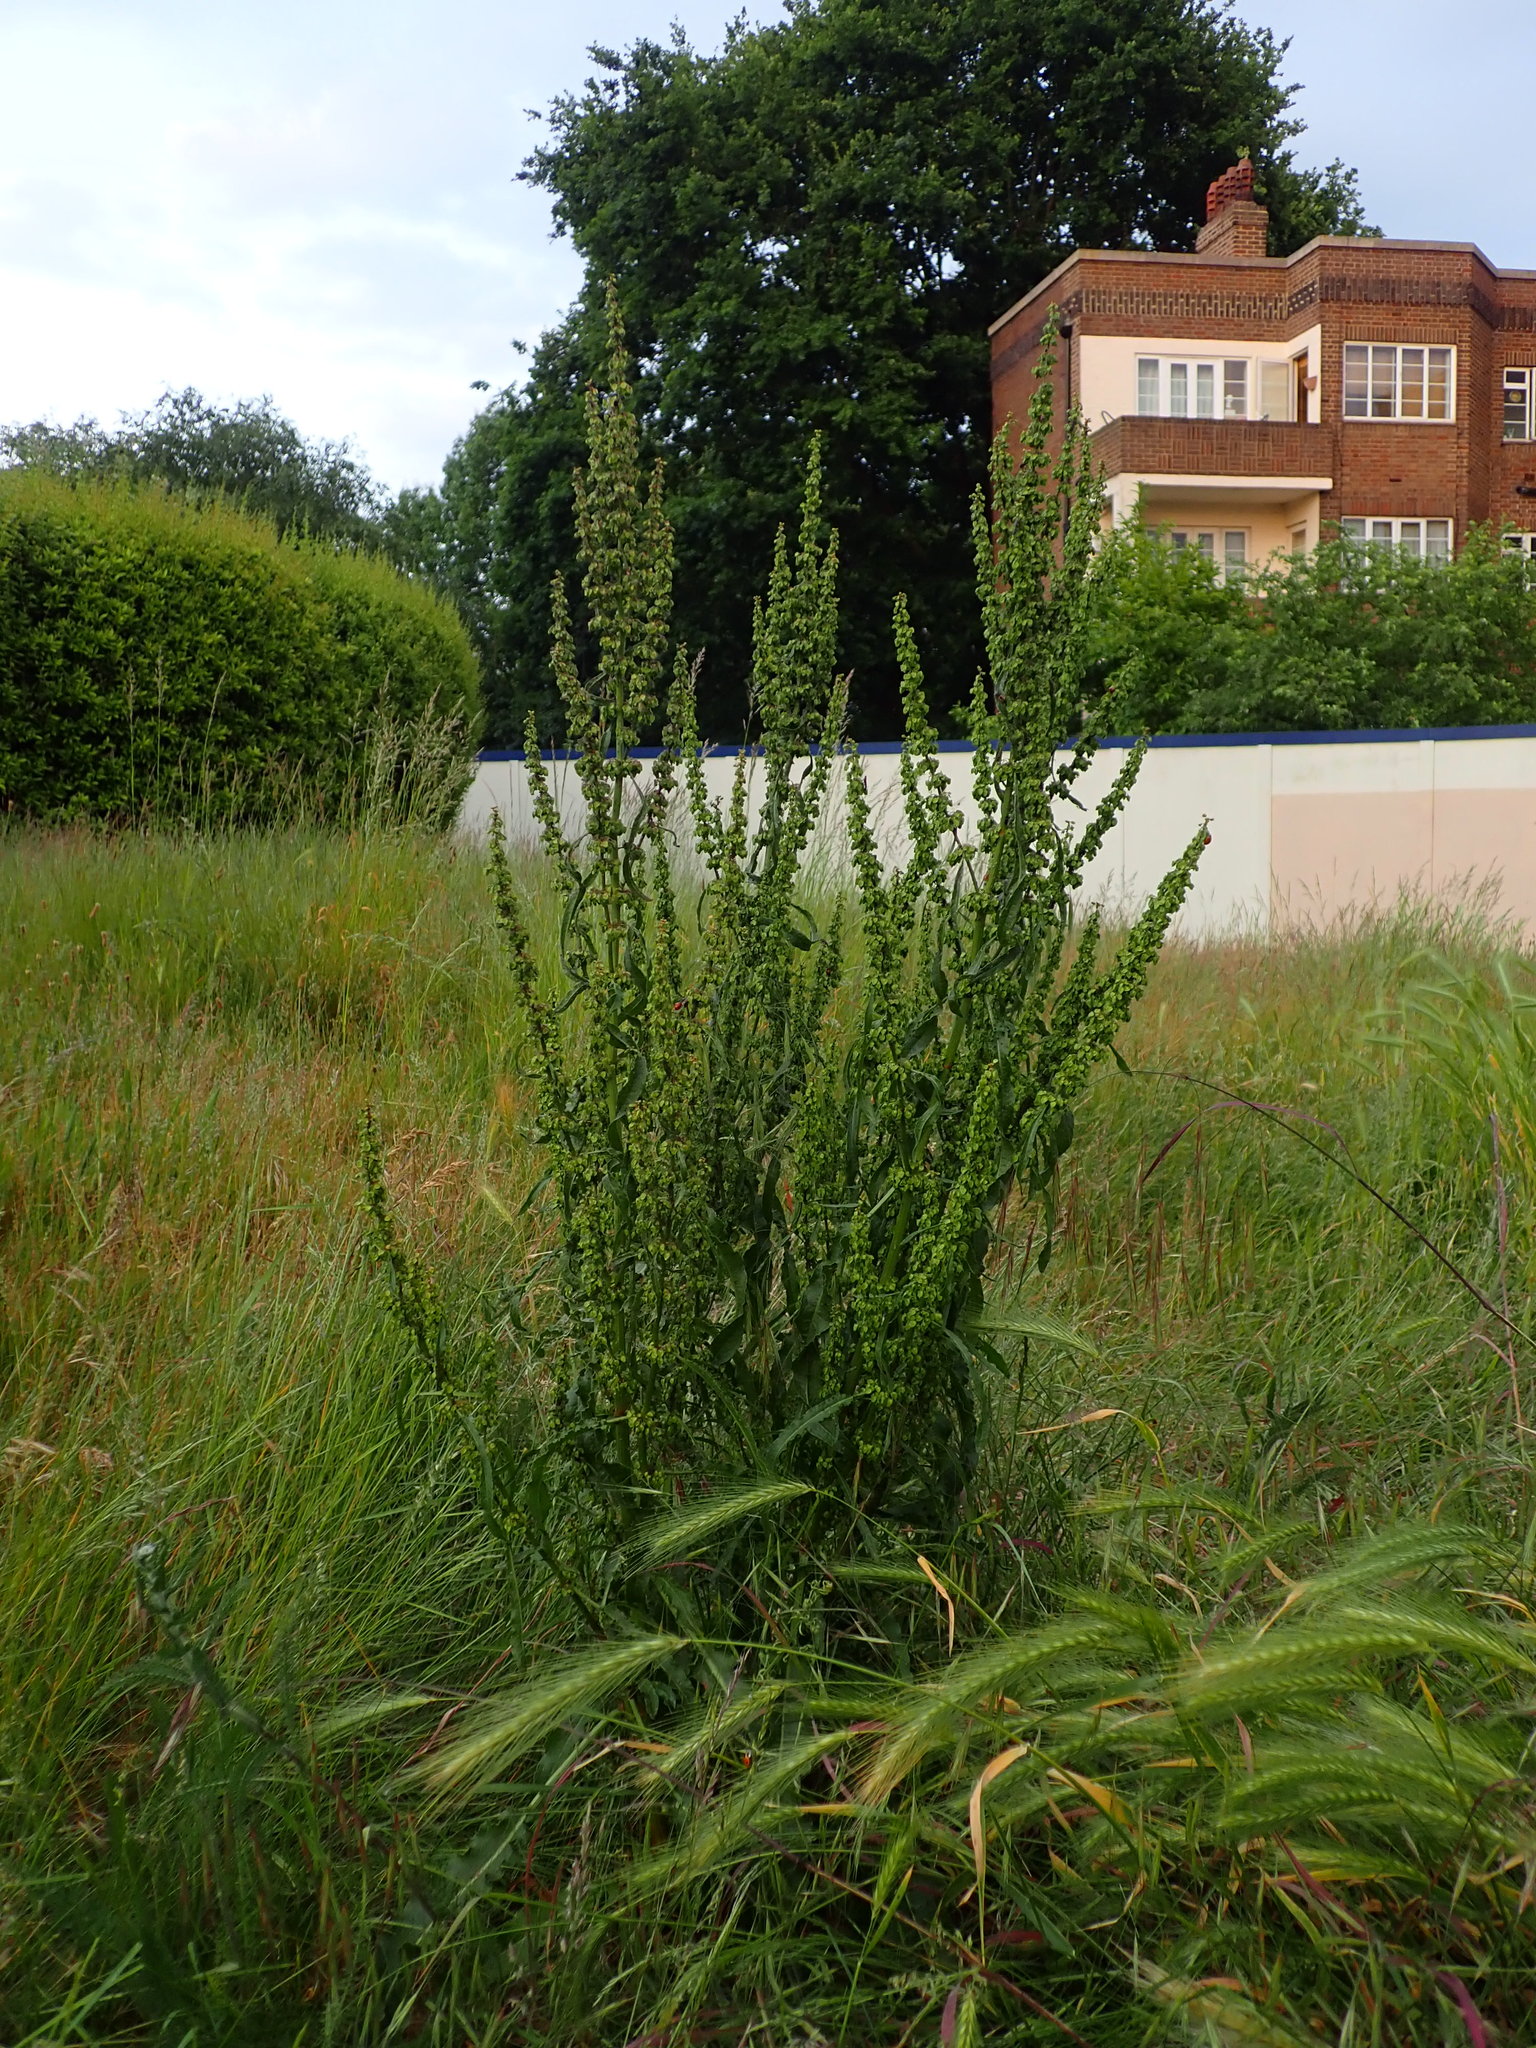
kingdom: Plantae
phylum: Tracheophyta
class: Magnoliopsida
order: Caryophyllales
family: Polygonaceae
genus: Rumex
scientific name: Rumex crispus
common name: Curled dock
